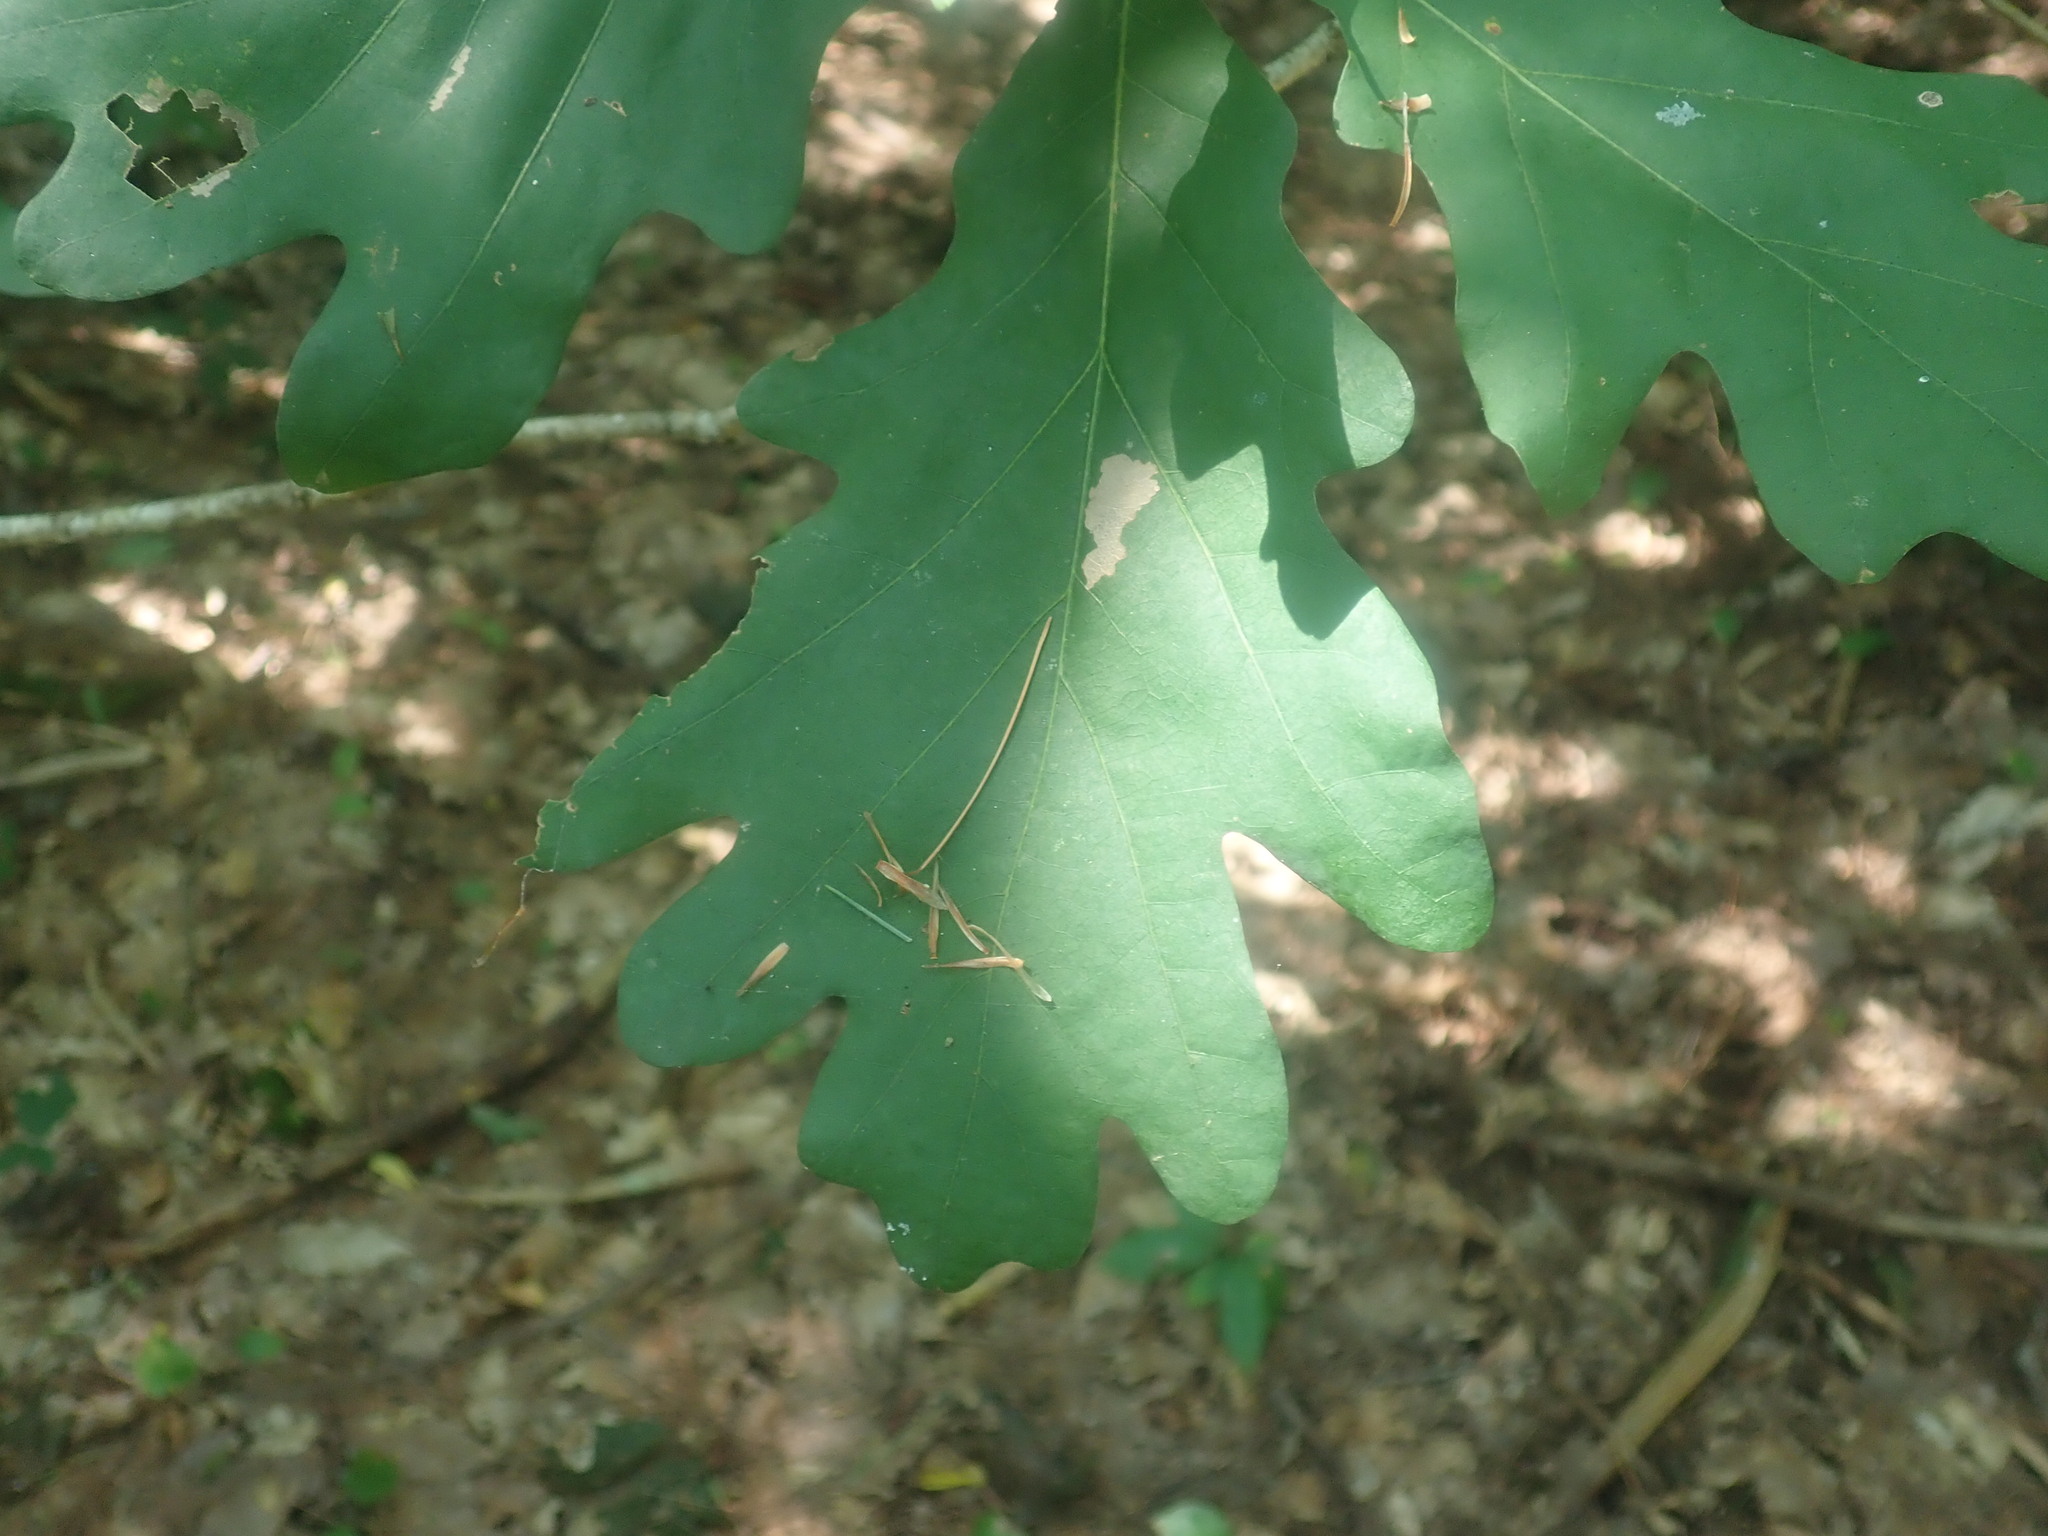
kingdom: Plantae
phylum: Tracheophyta
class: Magnoliopsida
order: Fagales
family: Fagaceae
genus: Quercus
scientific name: Quercus alba
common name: White oak
